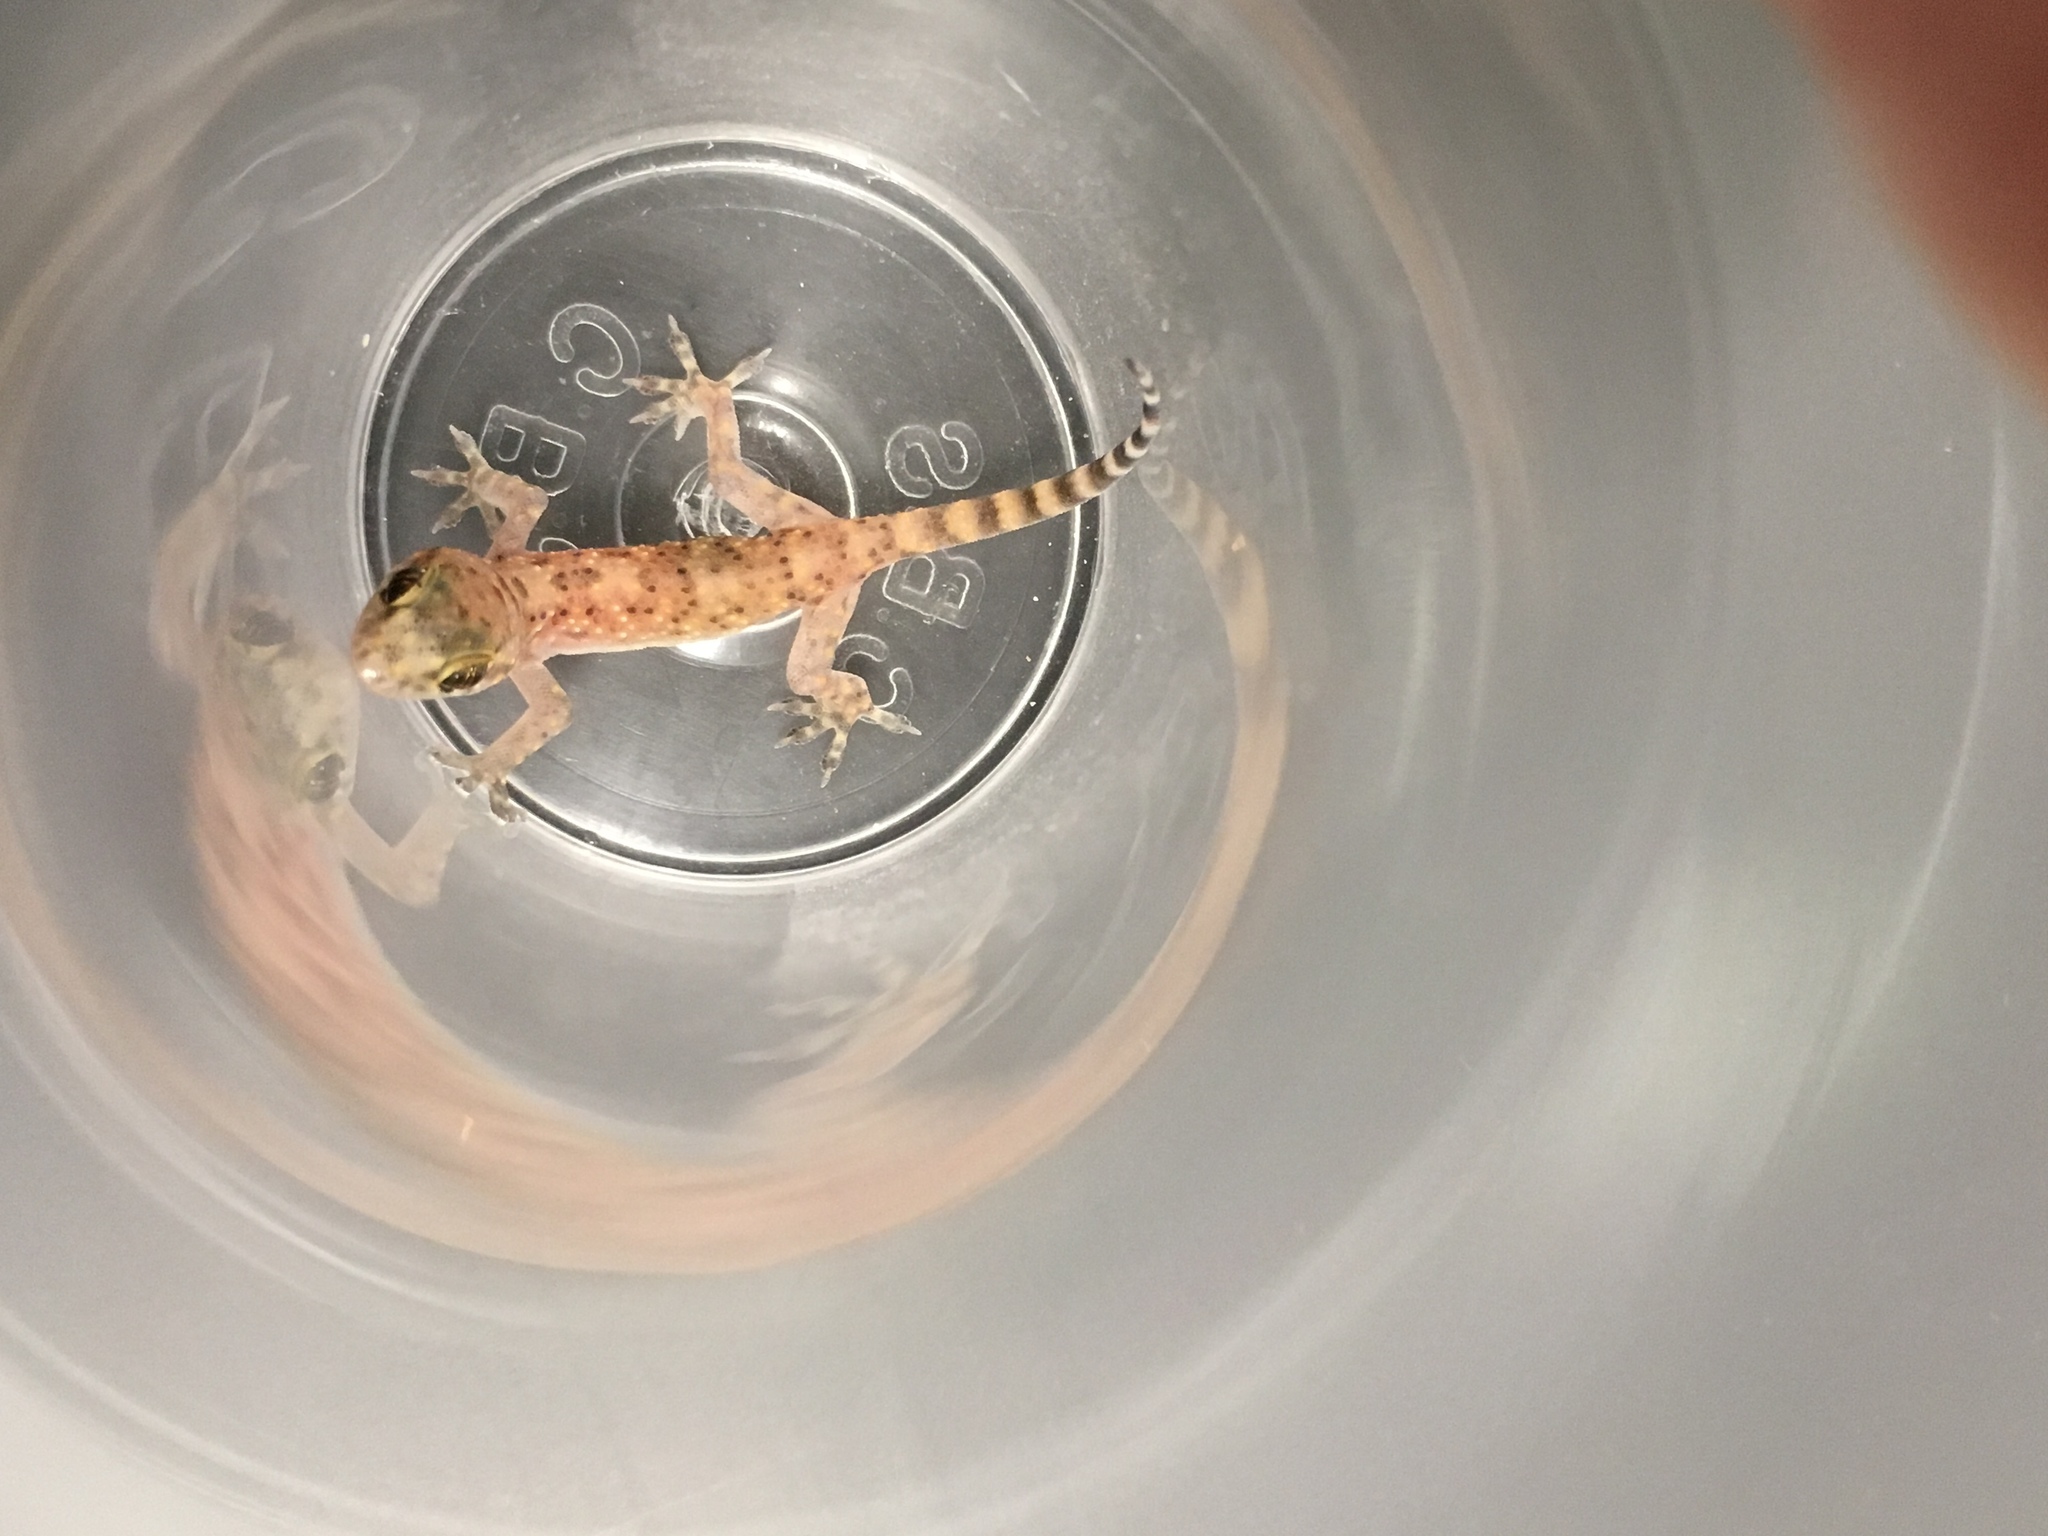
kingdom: Animalia
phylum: Chordata
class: Squamata
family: Gekkonidae
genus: Hemidactylus
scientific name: Hemidactylus turcicus
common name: Turkish gecko
